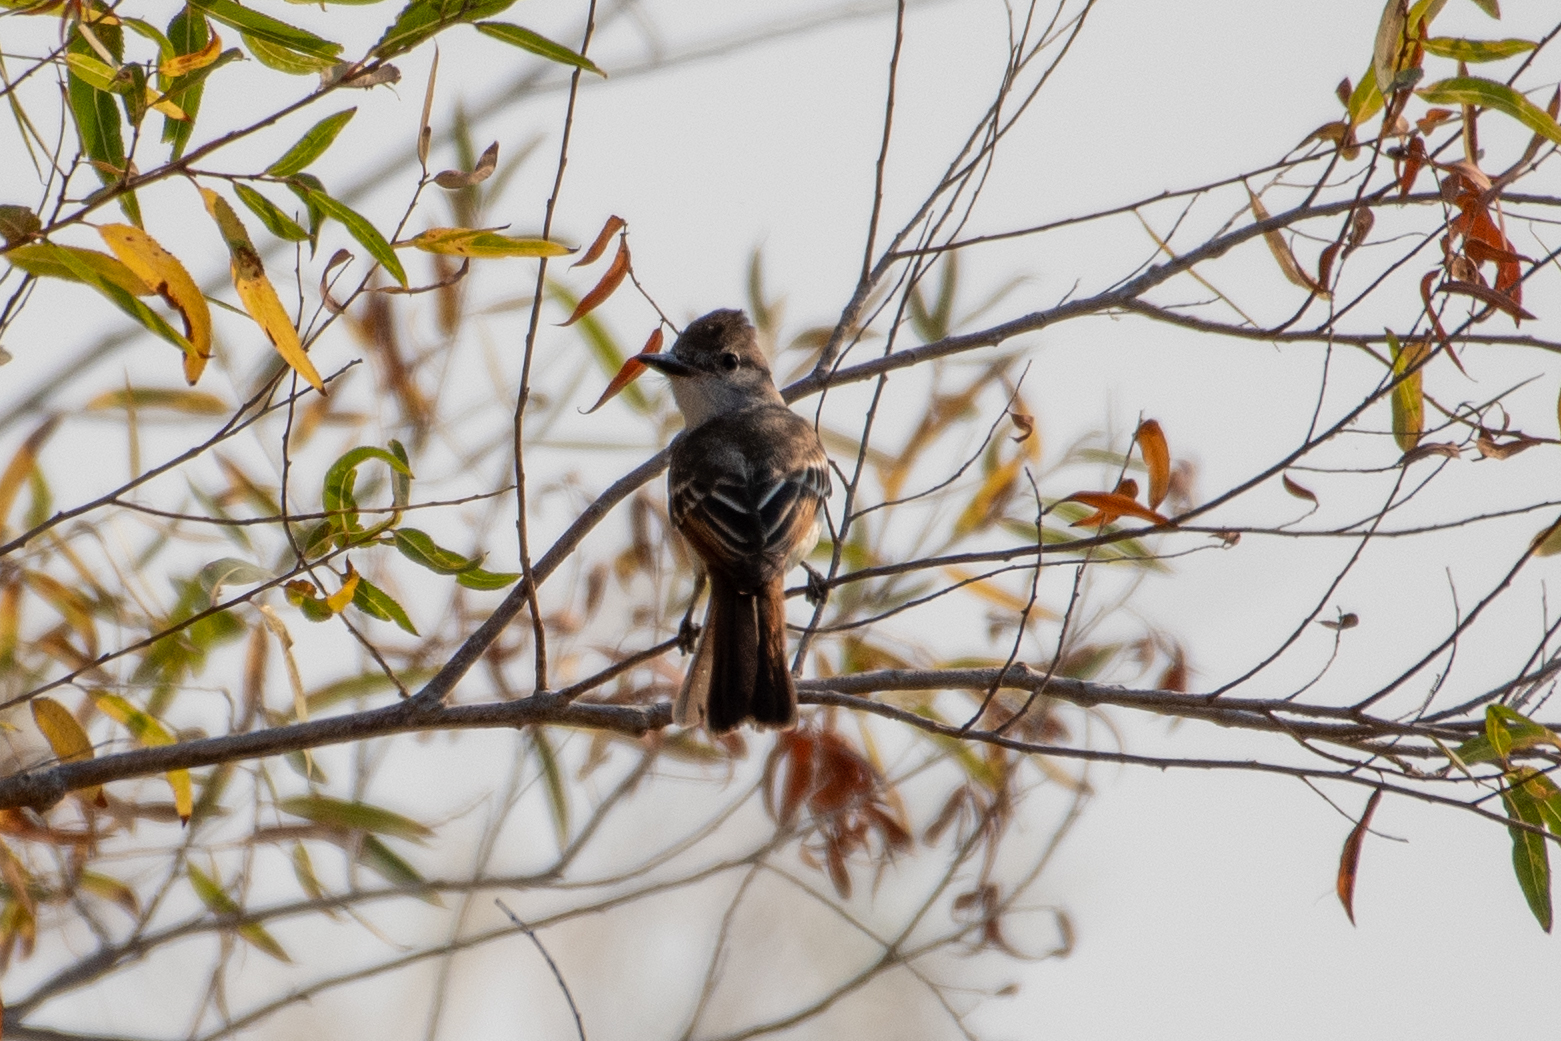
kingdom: Animalia
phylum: Chordata
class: Aves
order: Passeriformes
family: Tyrannidae
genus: Myiarchus
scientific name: Myiarchus cinerascens
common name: Ash-throated flycatcher
